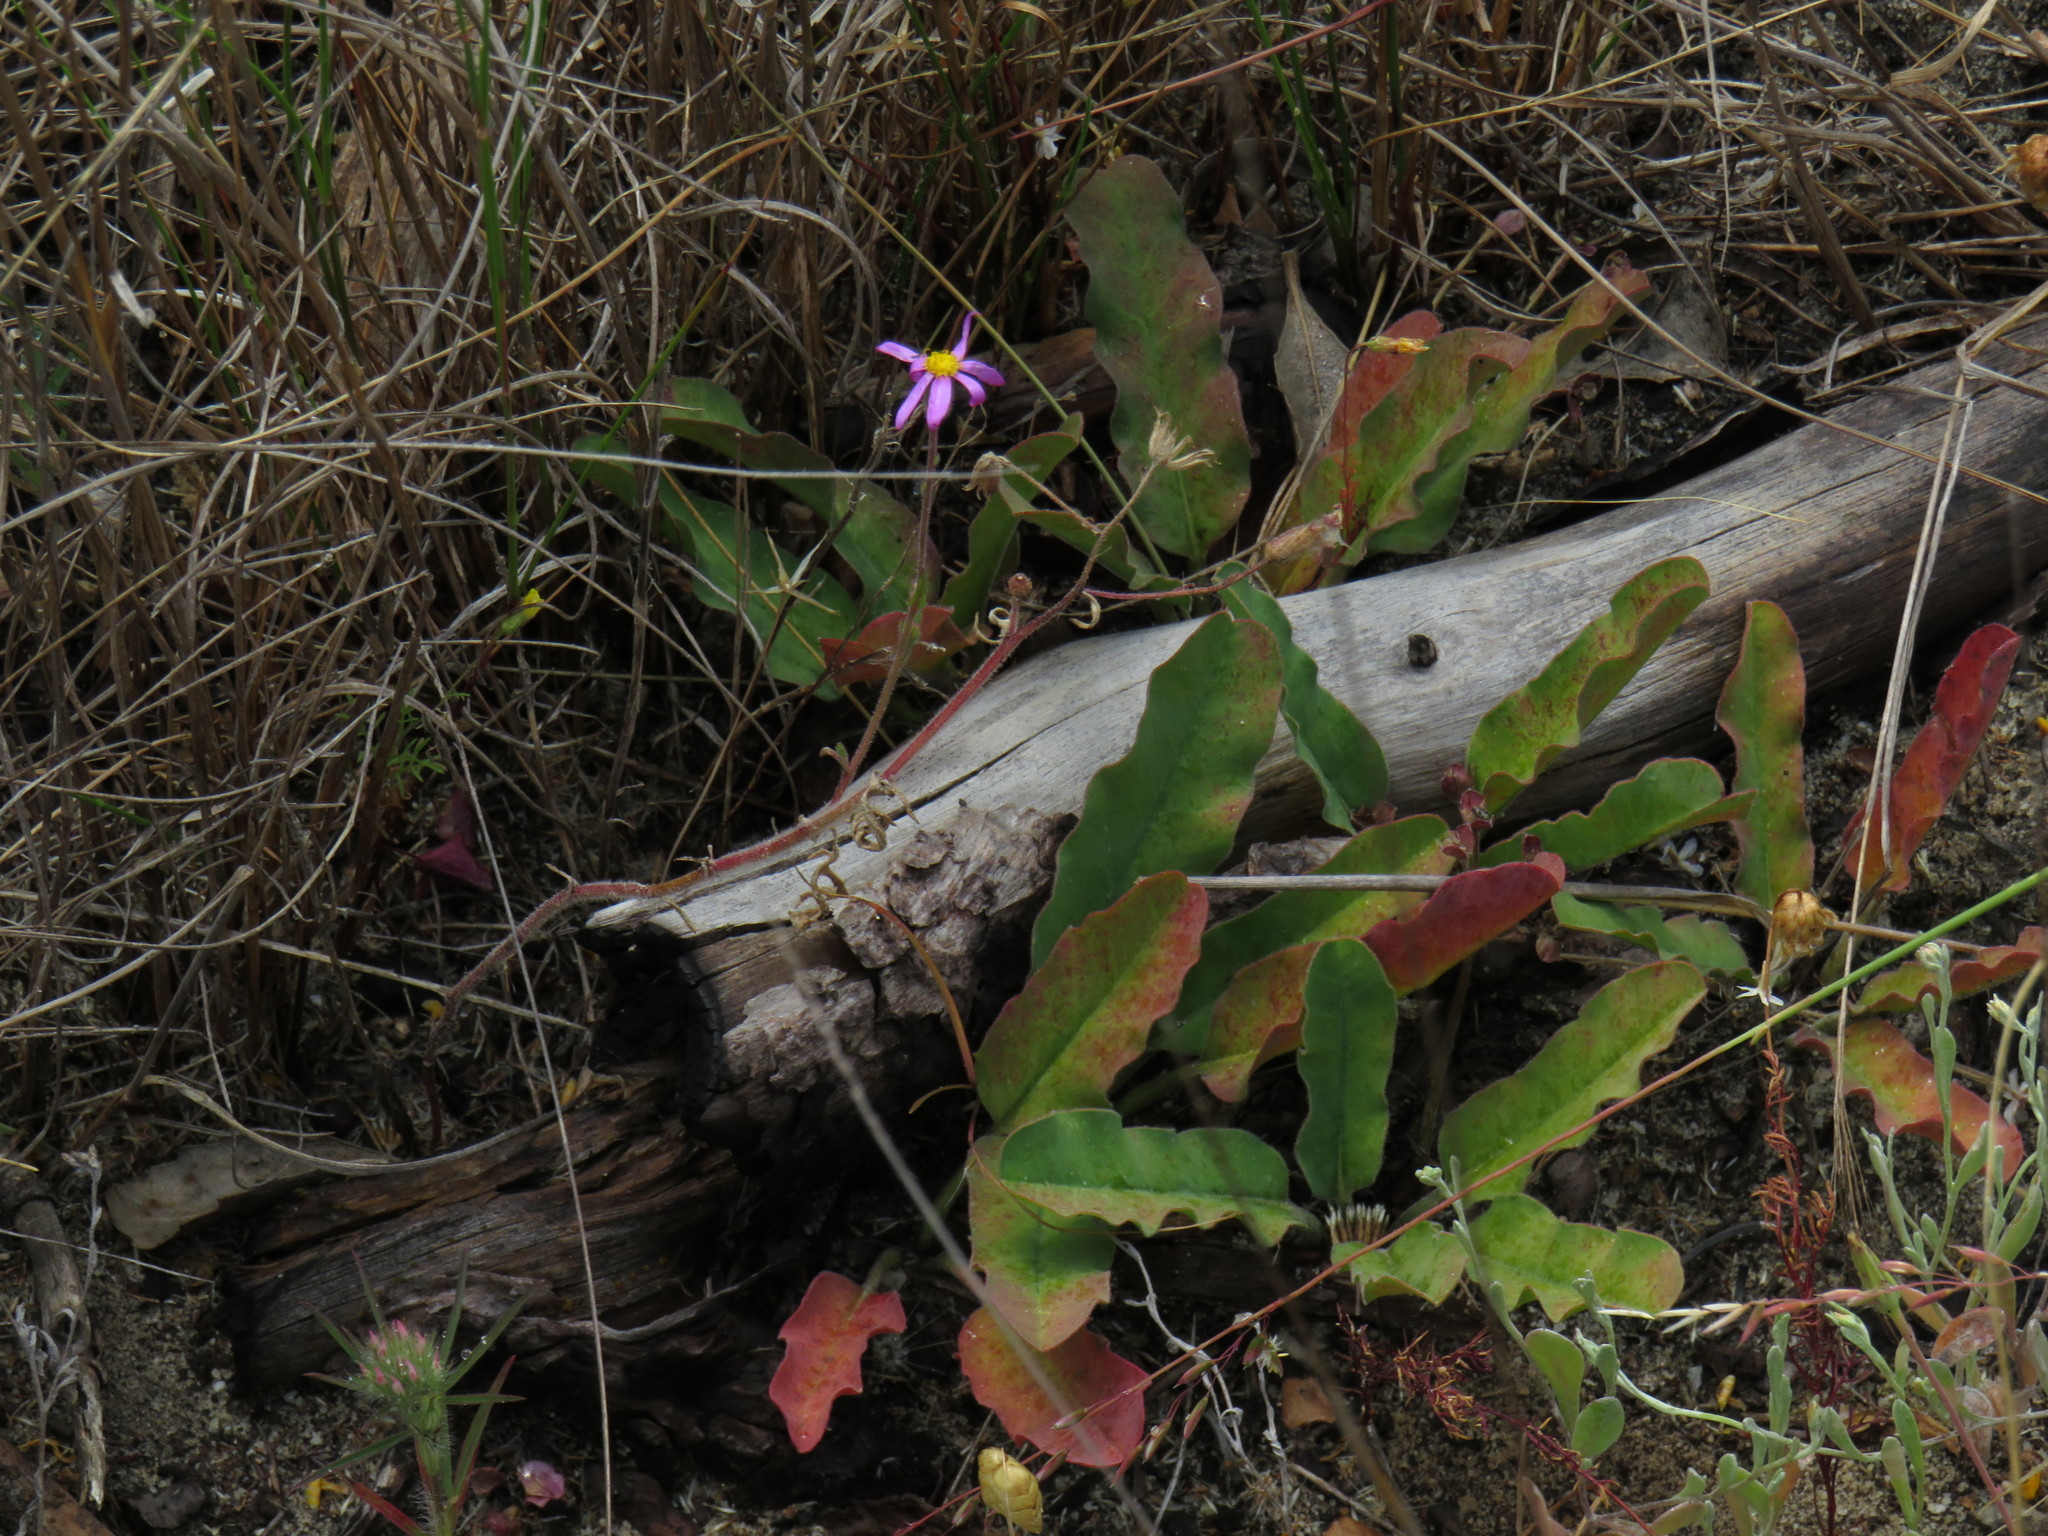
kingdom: Plantae
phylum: Tracheophyta
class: Magnoliopsida
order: Malpighiales
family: Euphorbiaceae
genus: Euphorbia
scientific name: Euphorbia tuberosa
